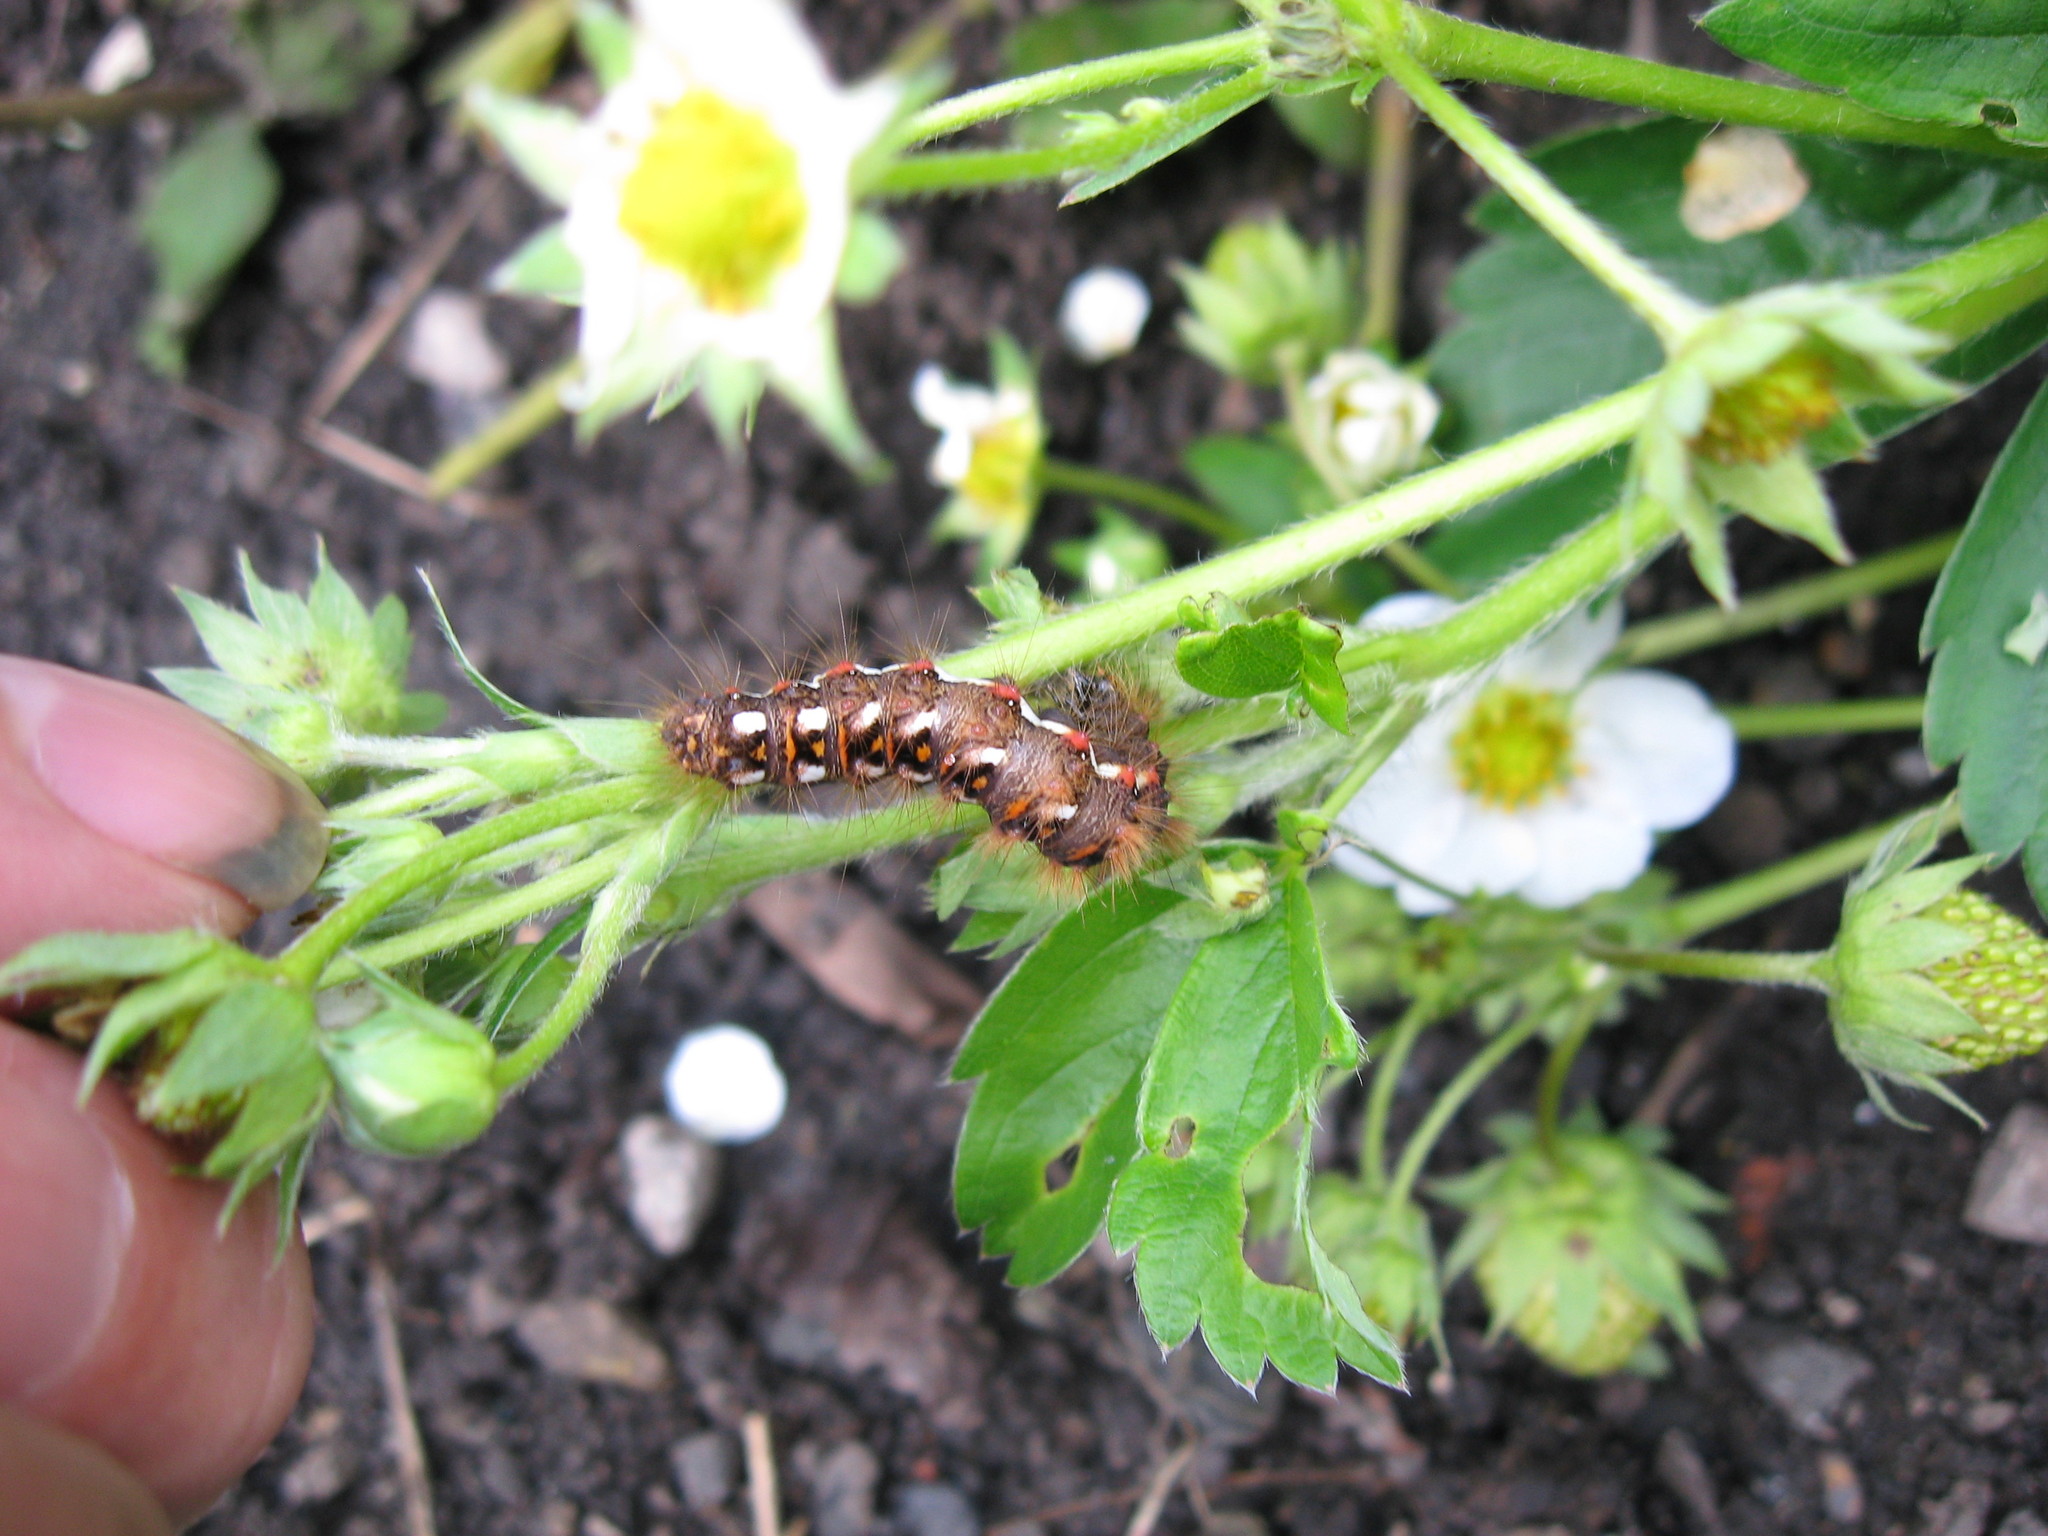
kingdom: Animalia
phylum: Arthropoda
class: Insecta
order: Lepidoptera
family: Noctuidae
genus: Acronicta
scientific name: Acronicta rumicis
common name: Knot grass
